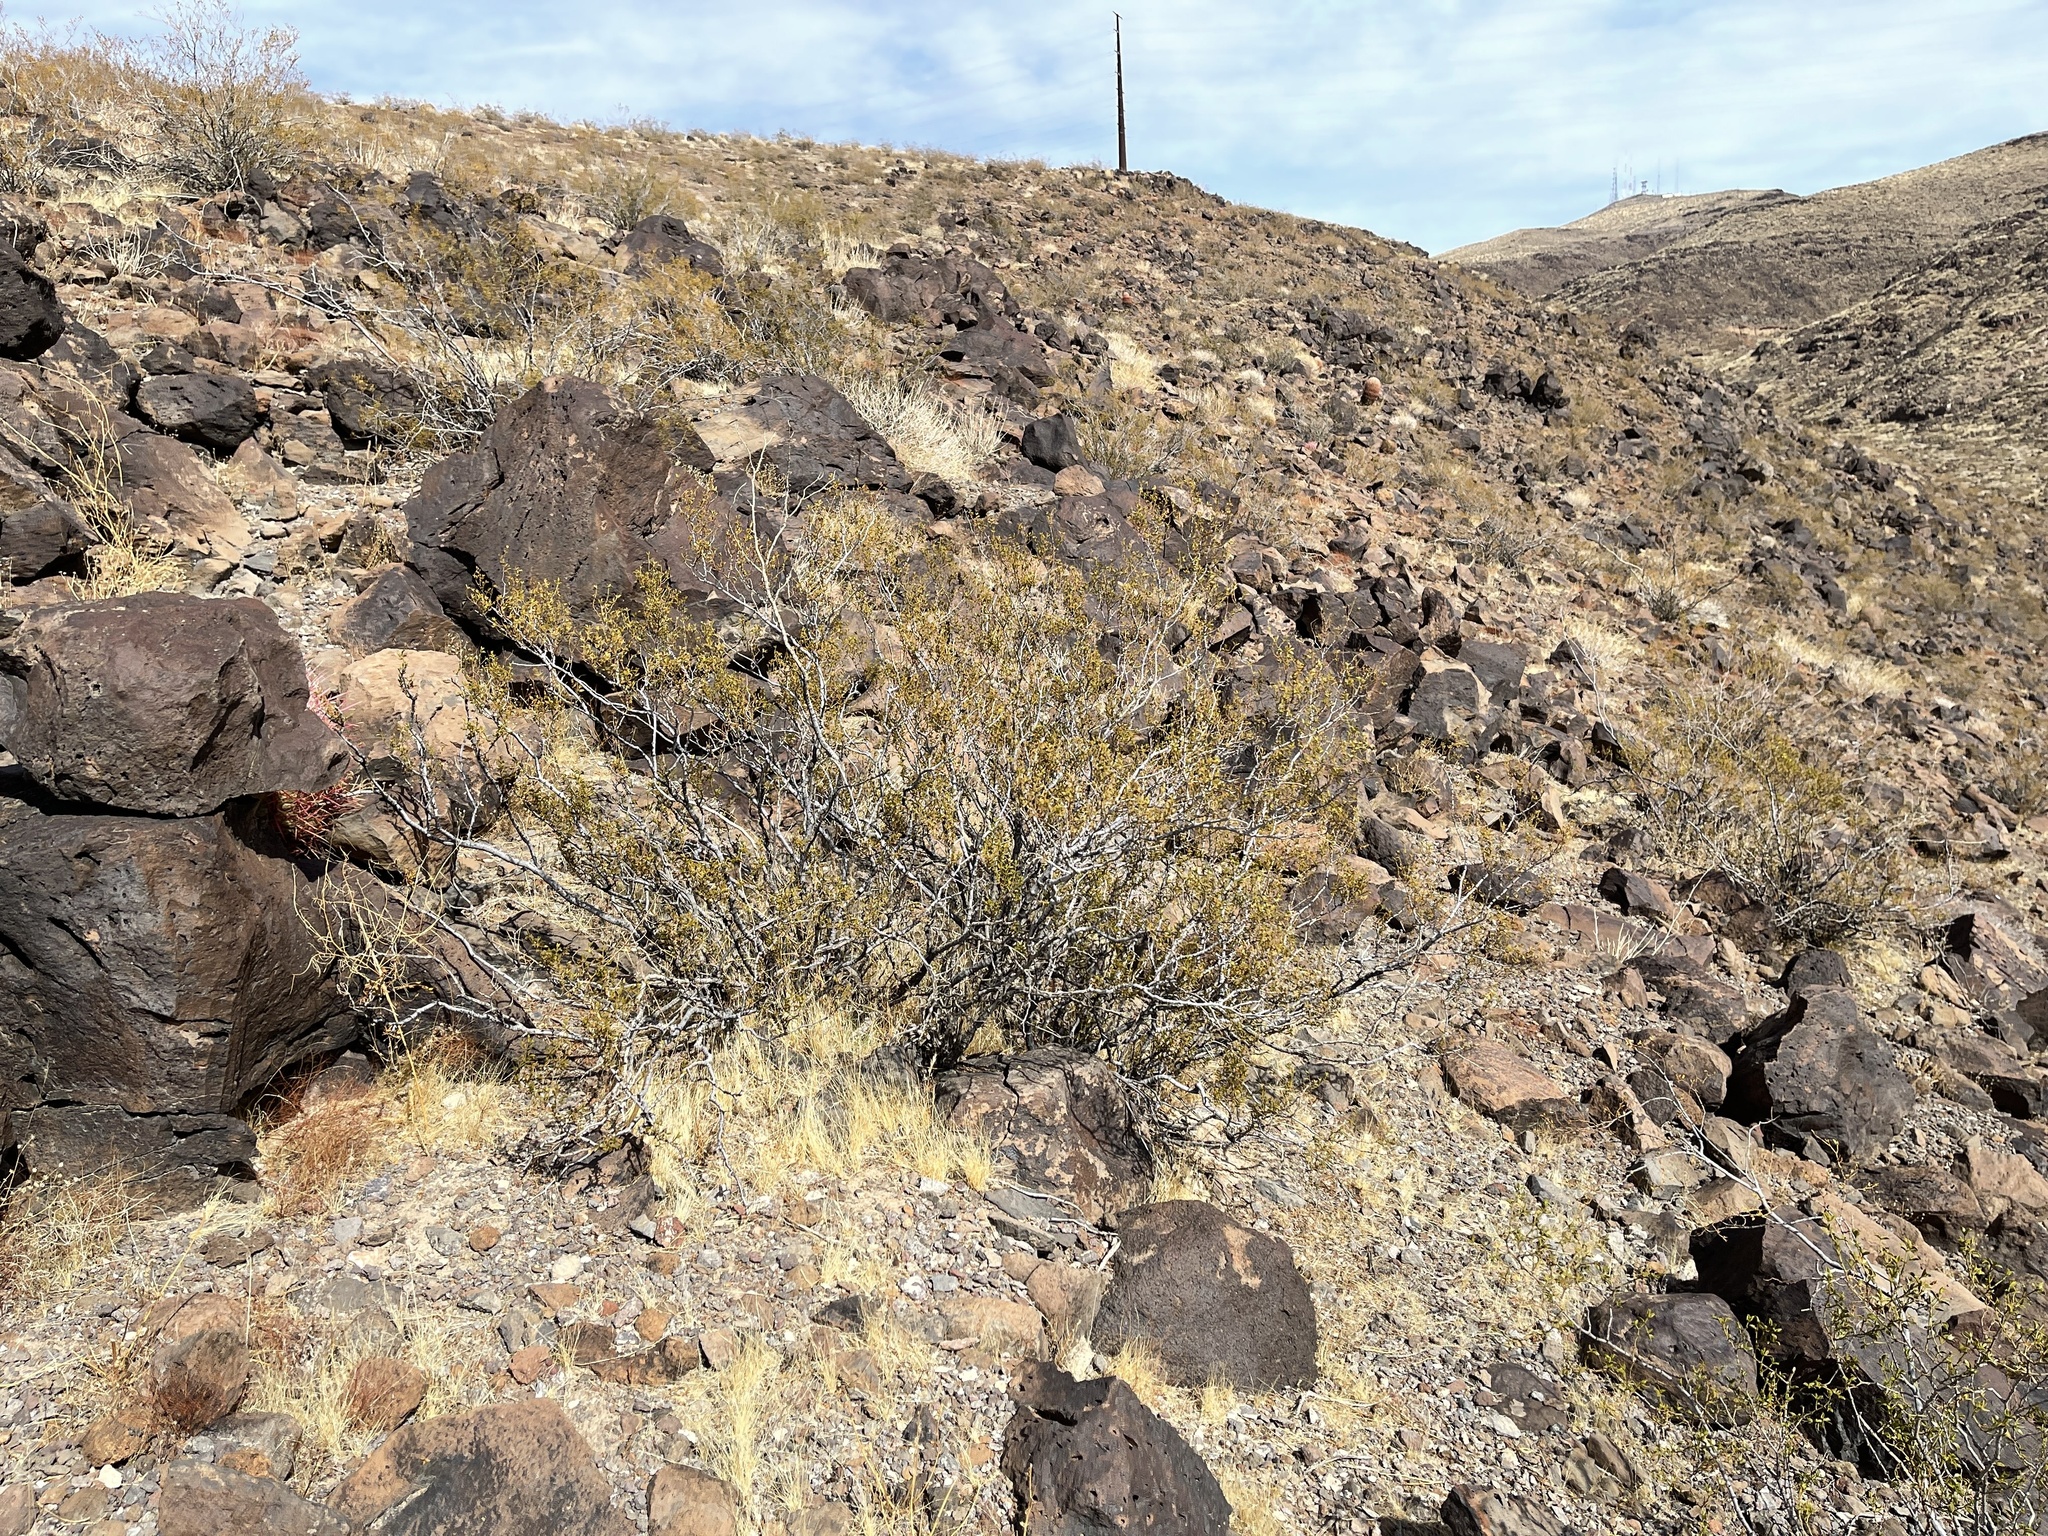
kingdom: Plantae
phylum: Tracheophyta
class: Magnoliopsida
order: Zygophyllales
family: Zygophyllaceae
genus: Larrea
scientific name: Larrea tridentata
